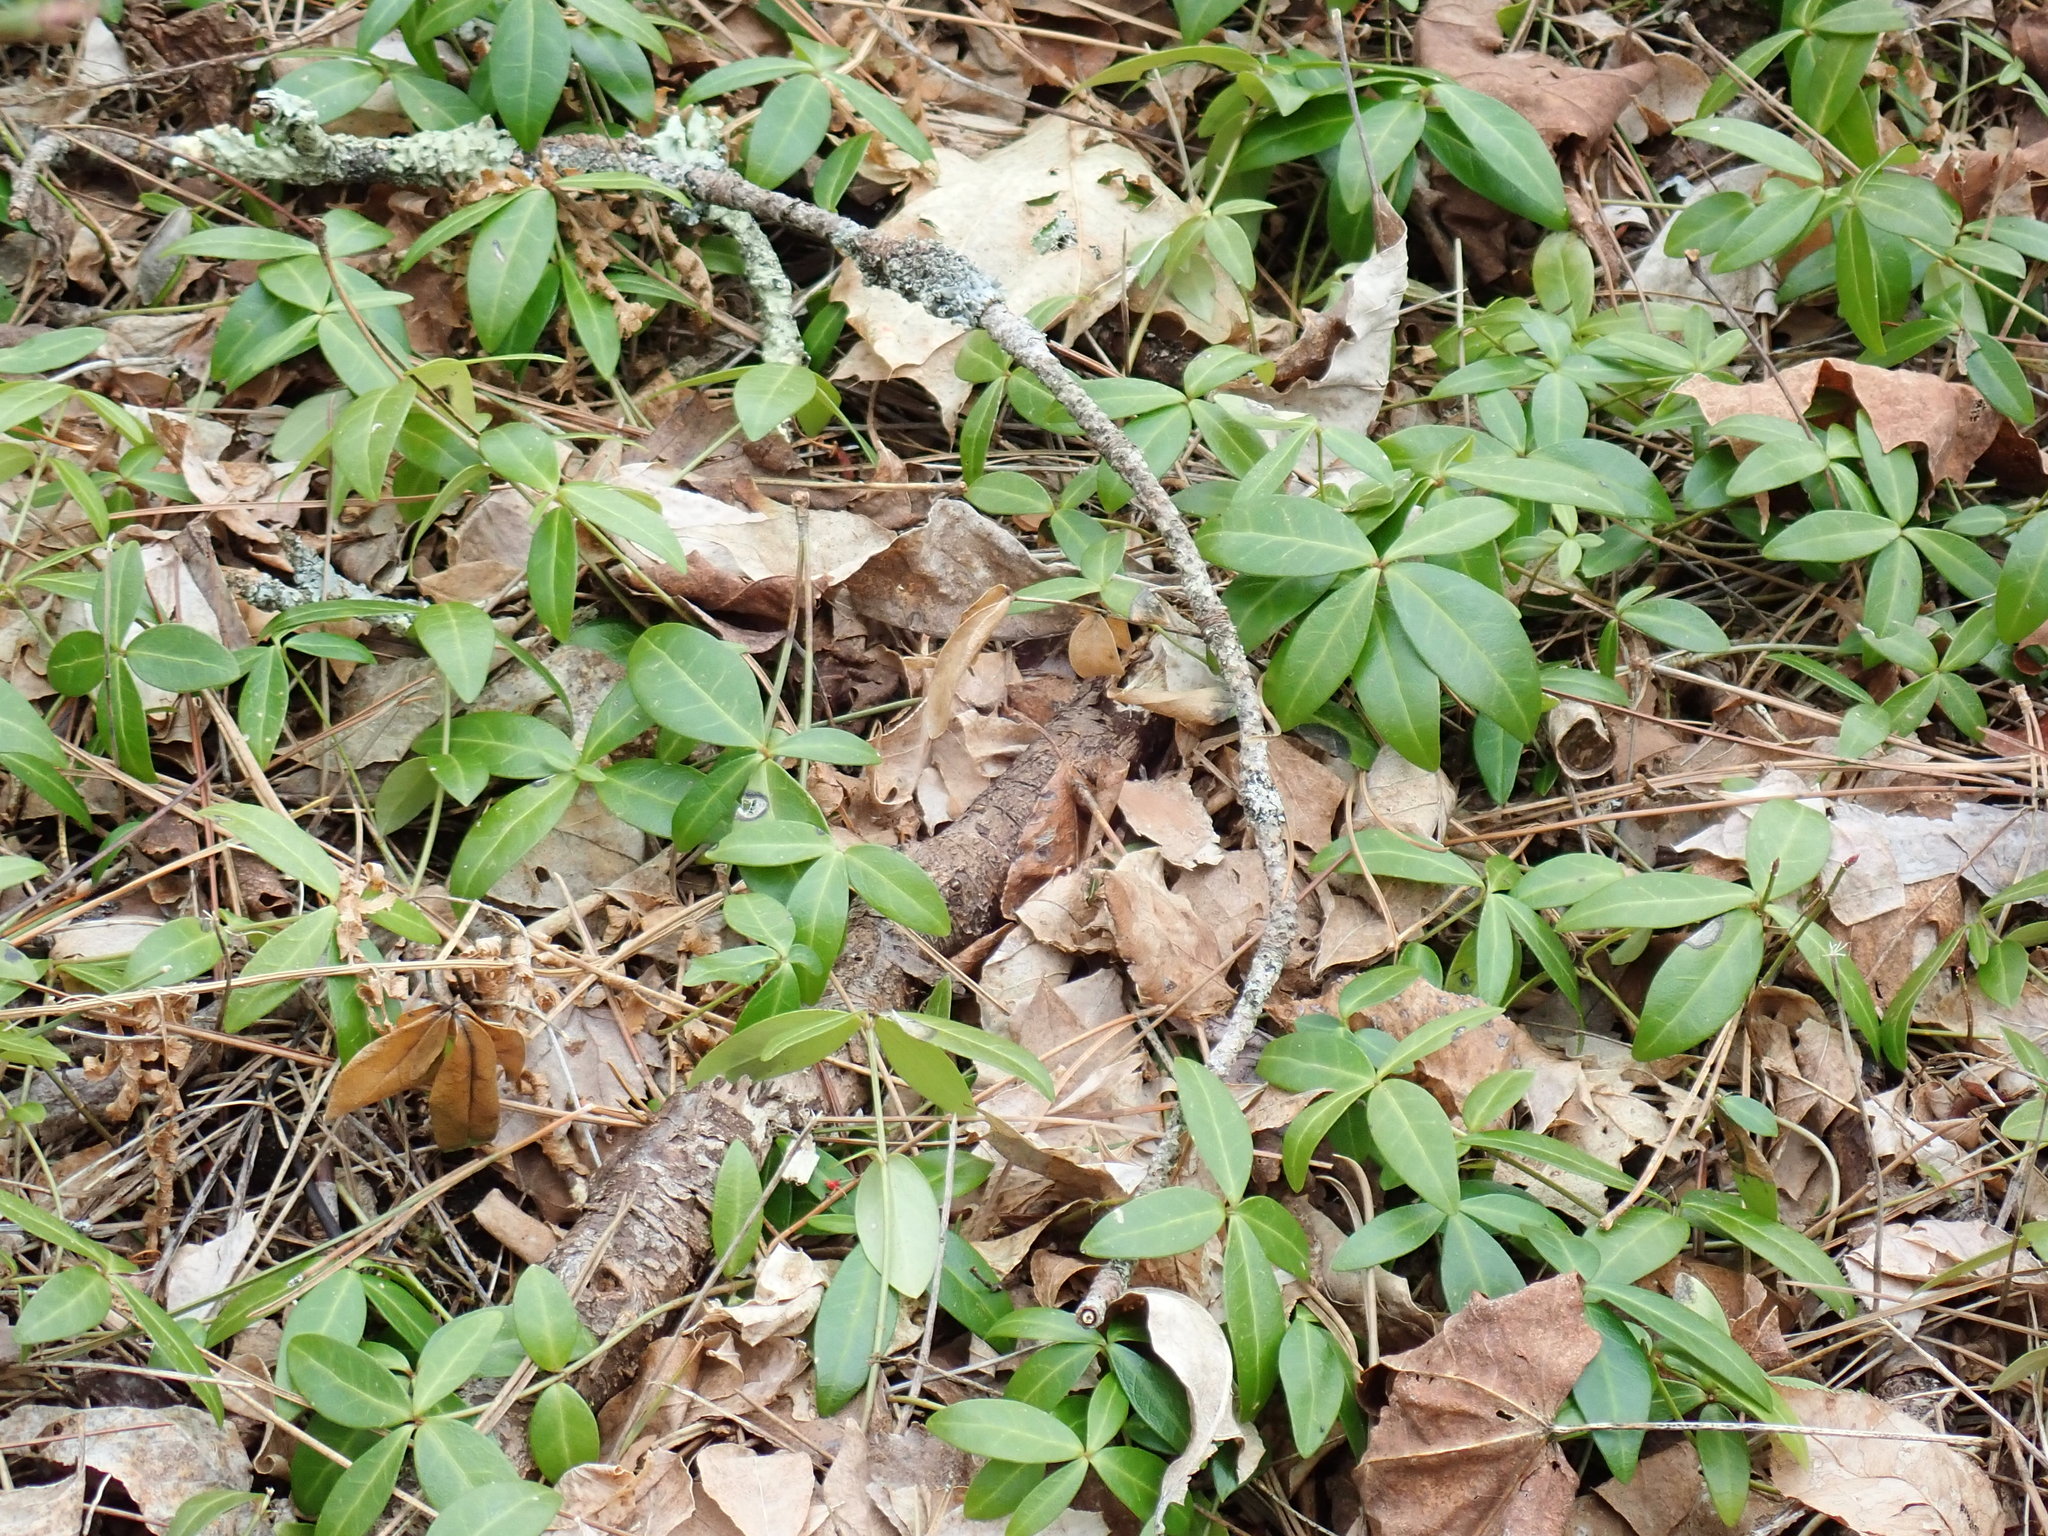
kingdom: Plantae
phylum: Tracheophyta
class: Magnoliopsida
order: Gentianales
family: Apocynaceae
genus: Vinca
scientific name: Vinca minor
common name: Lesser periwinkle
